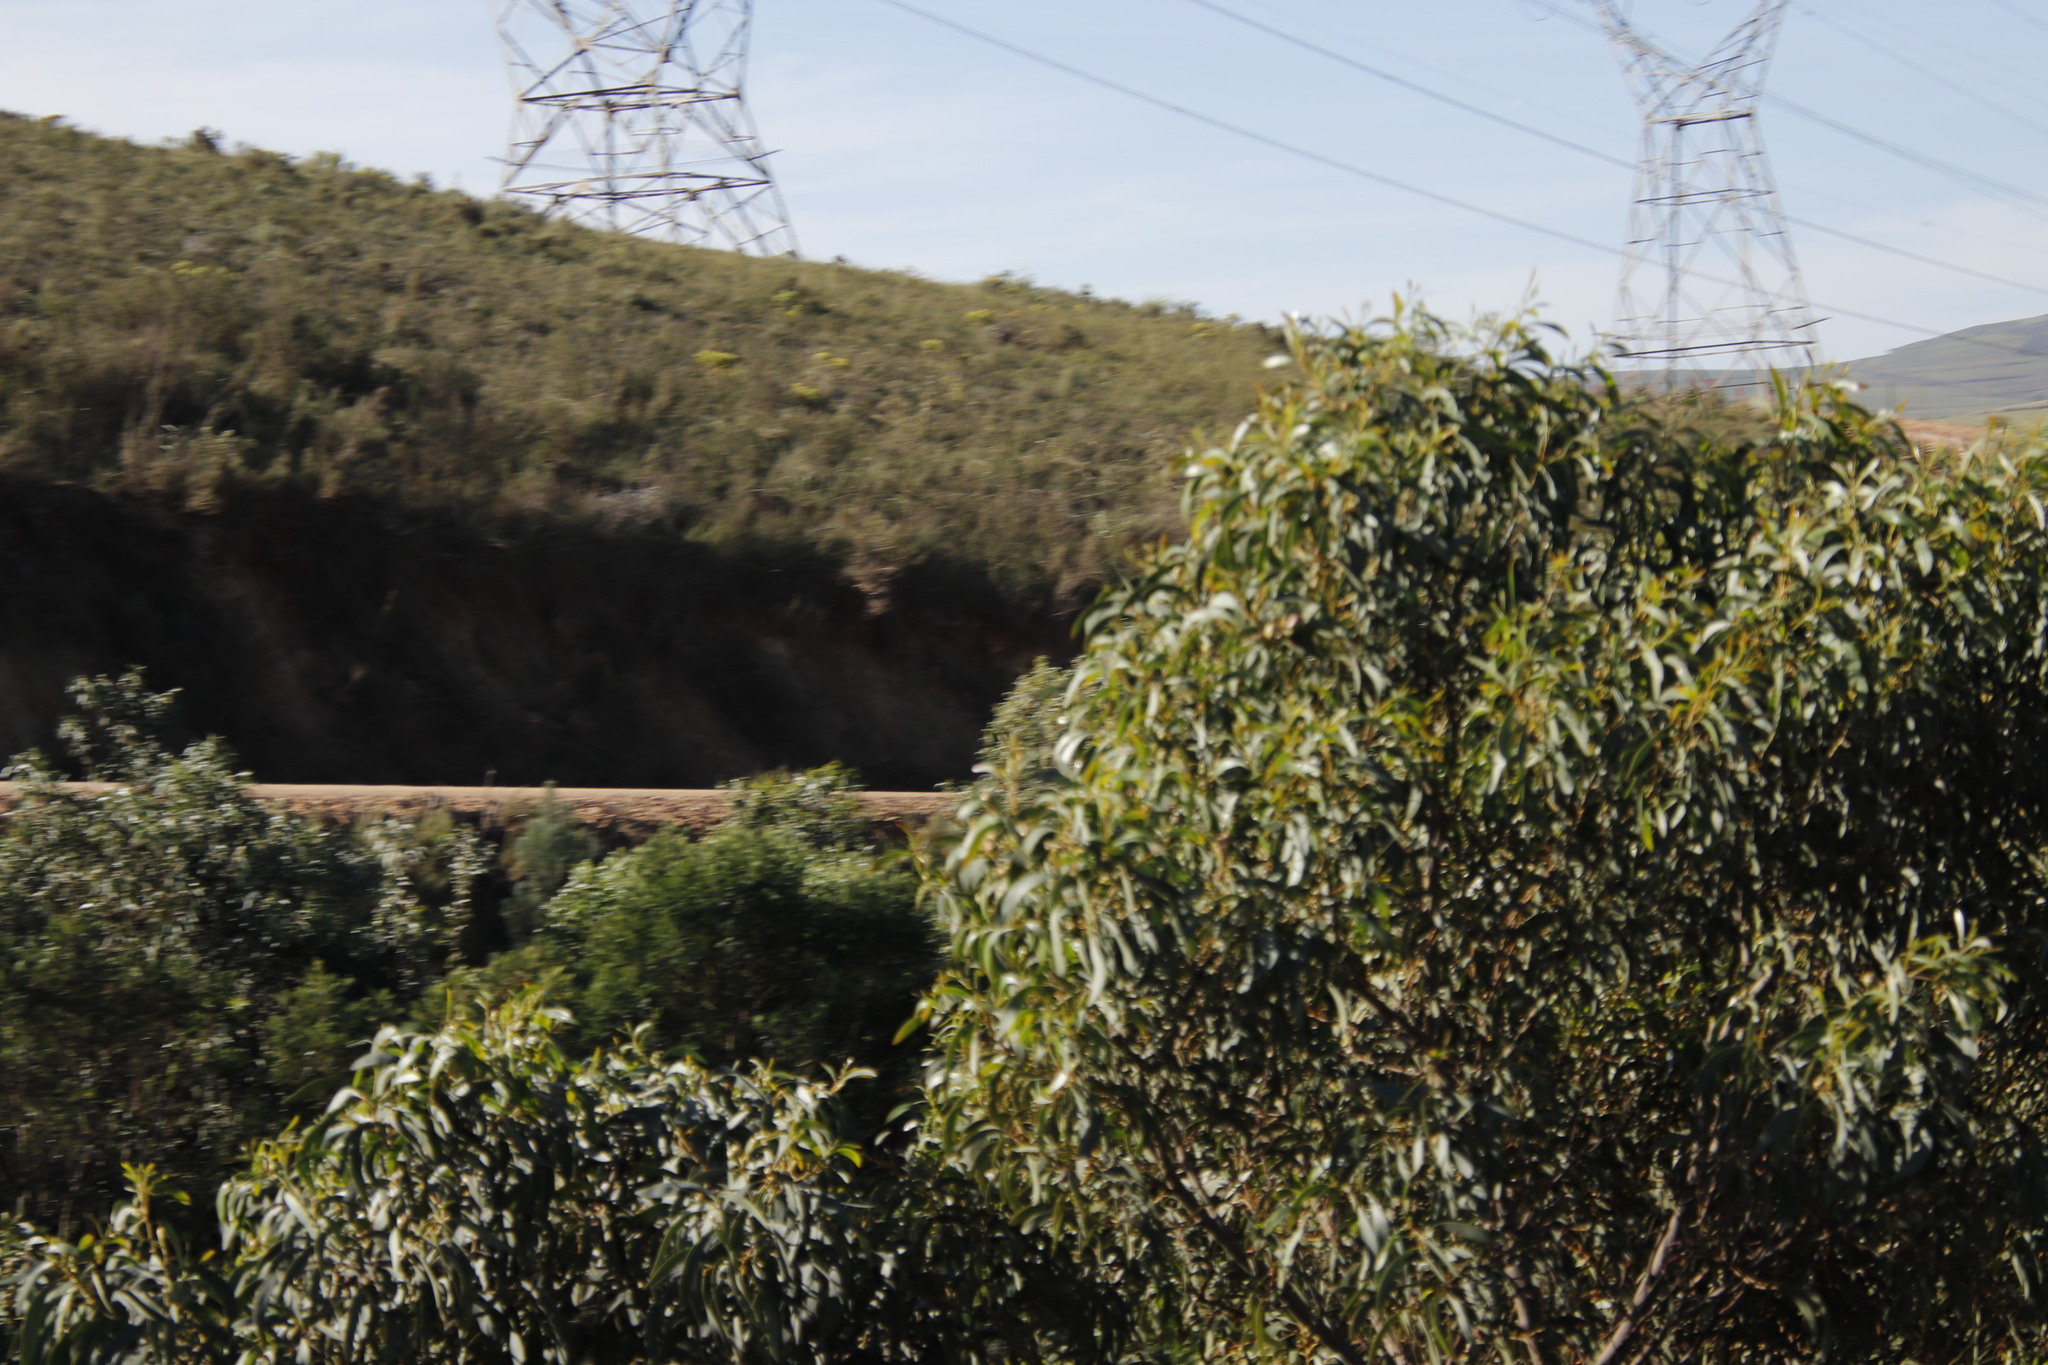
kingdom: Plantae
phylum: Tracheophyta
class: Magnoliopsida
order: Fabales
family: Fabaceae
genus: Acacia
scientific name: Acacia pycnantha
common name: Golden wattle
